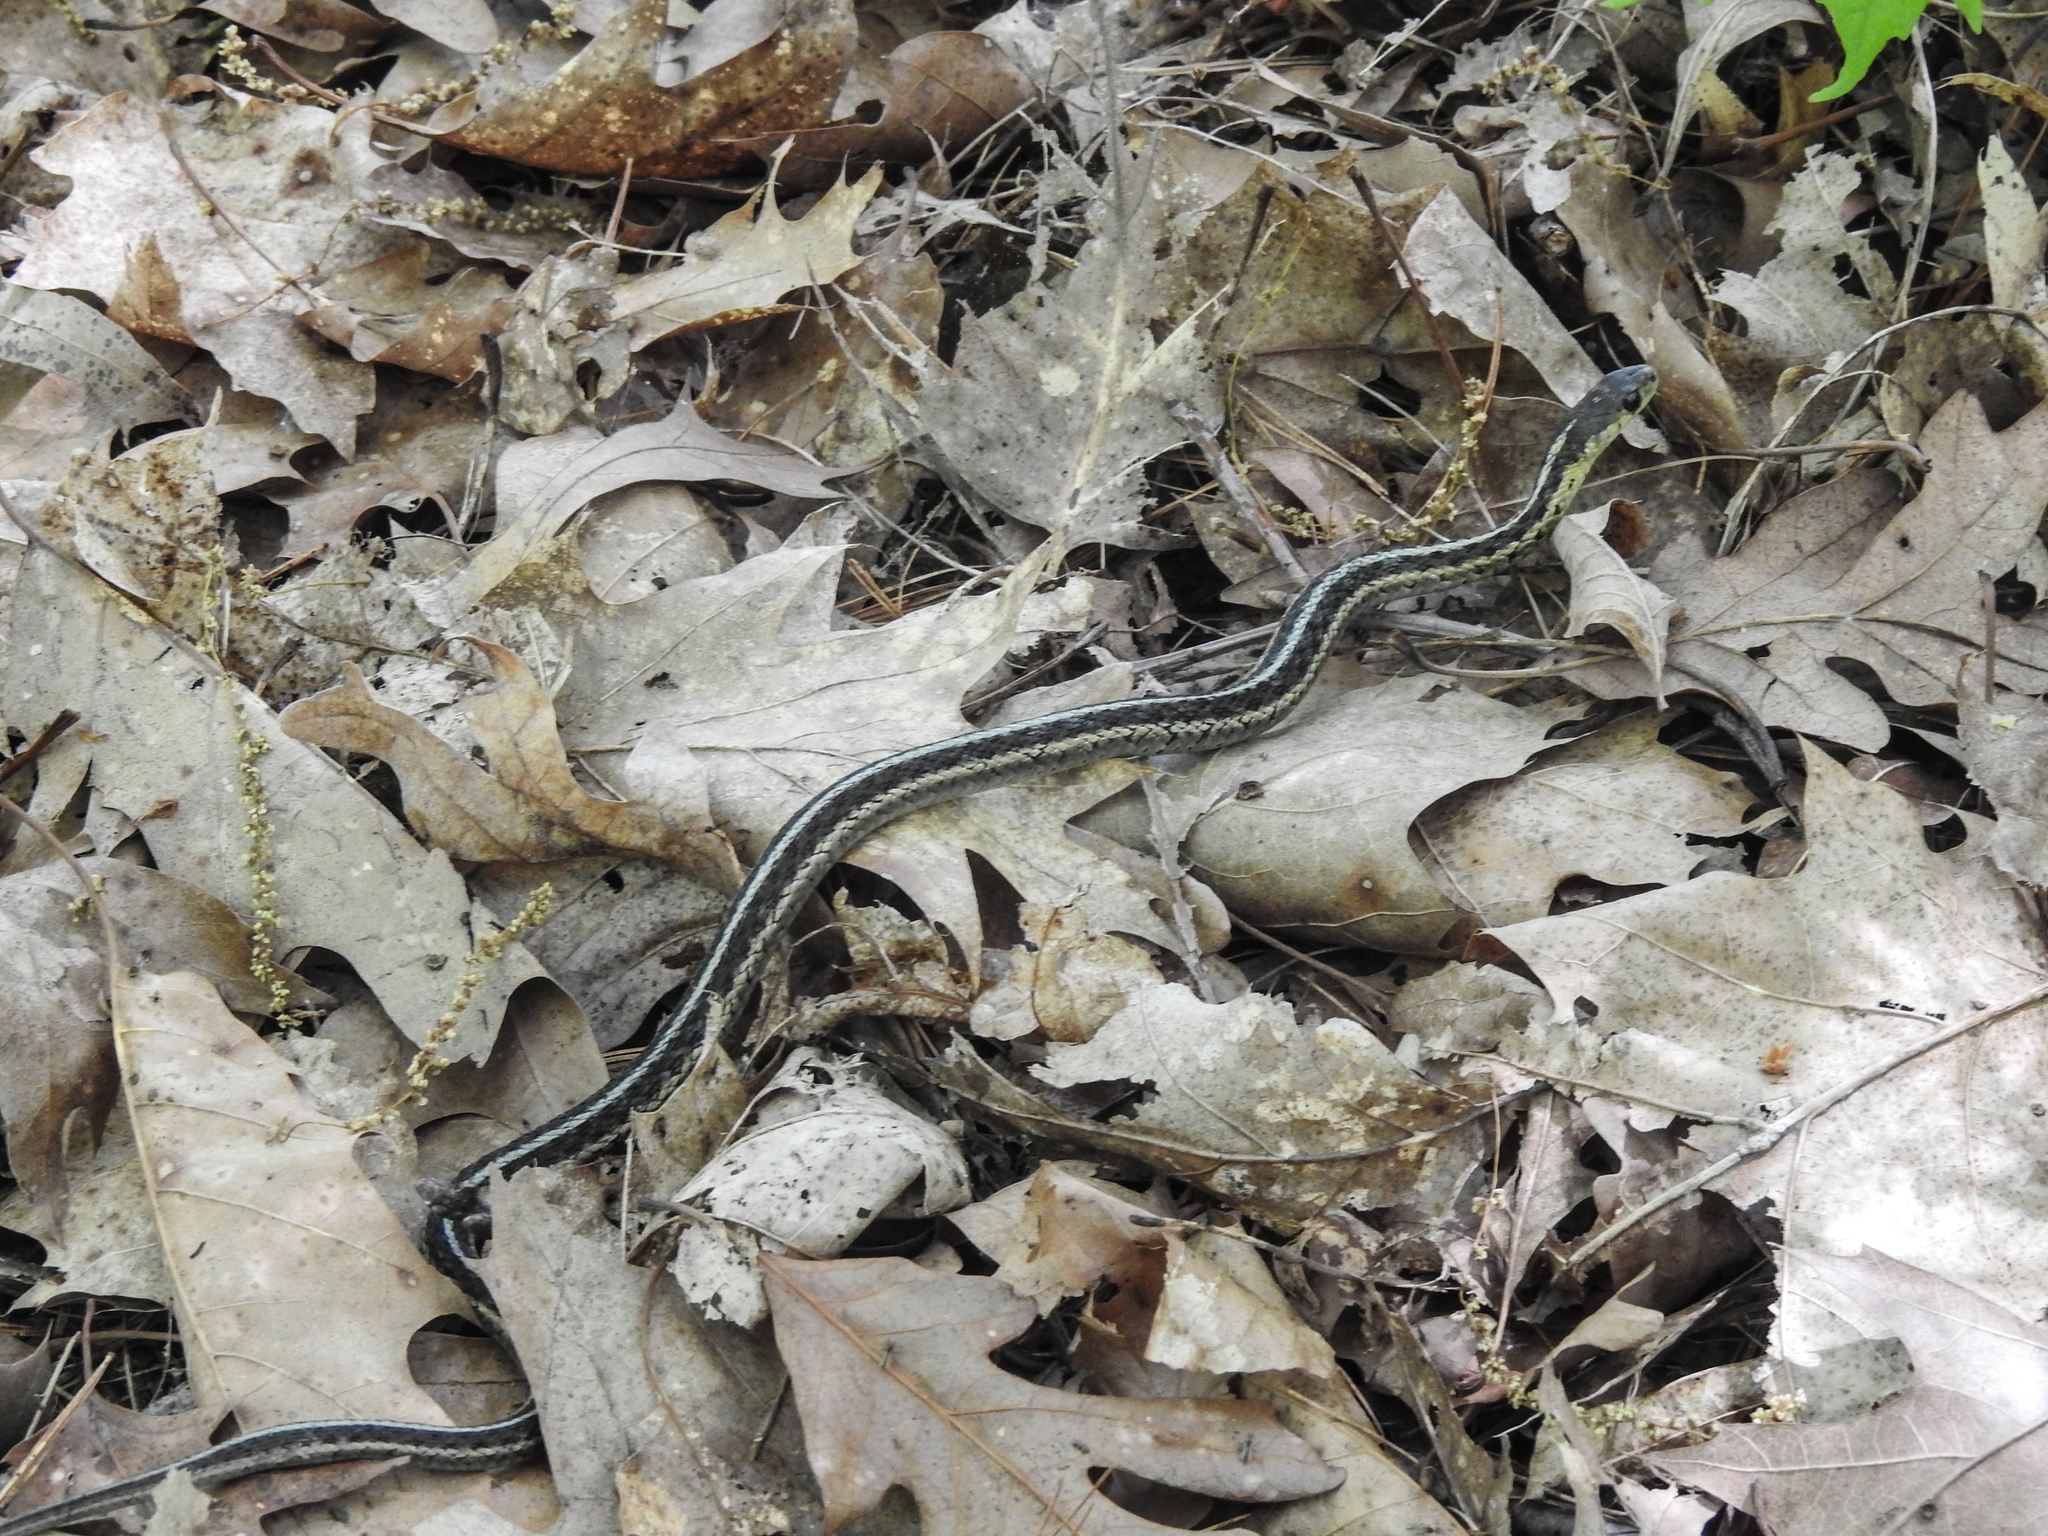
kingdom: Animalia
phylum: Chordata
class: Squamata
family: Colubridae
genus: Thamnophis
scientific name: Thamnophis sirtalis
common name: Common garter snake
